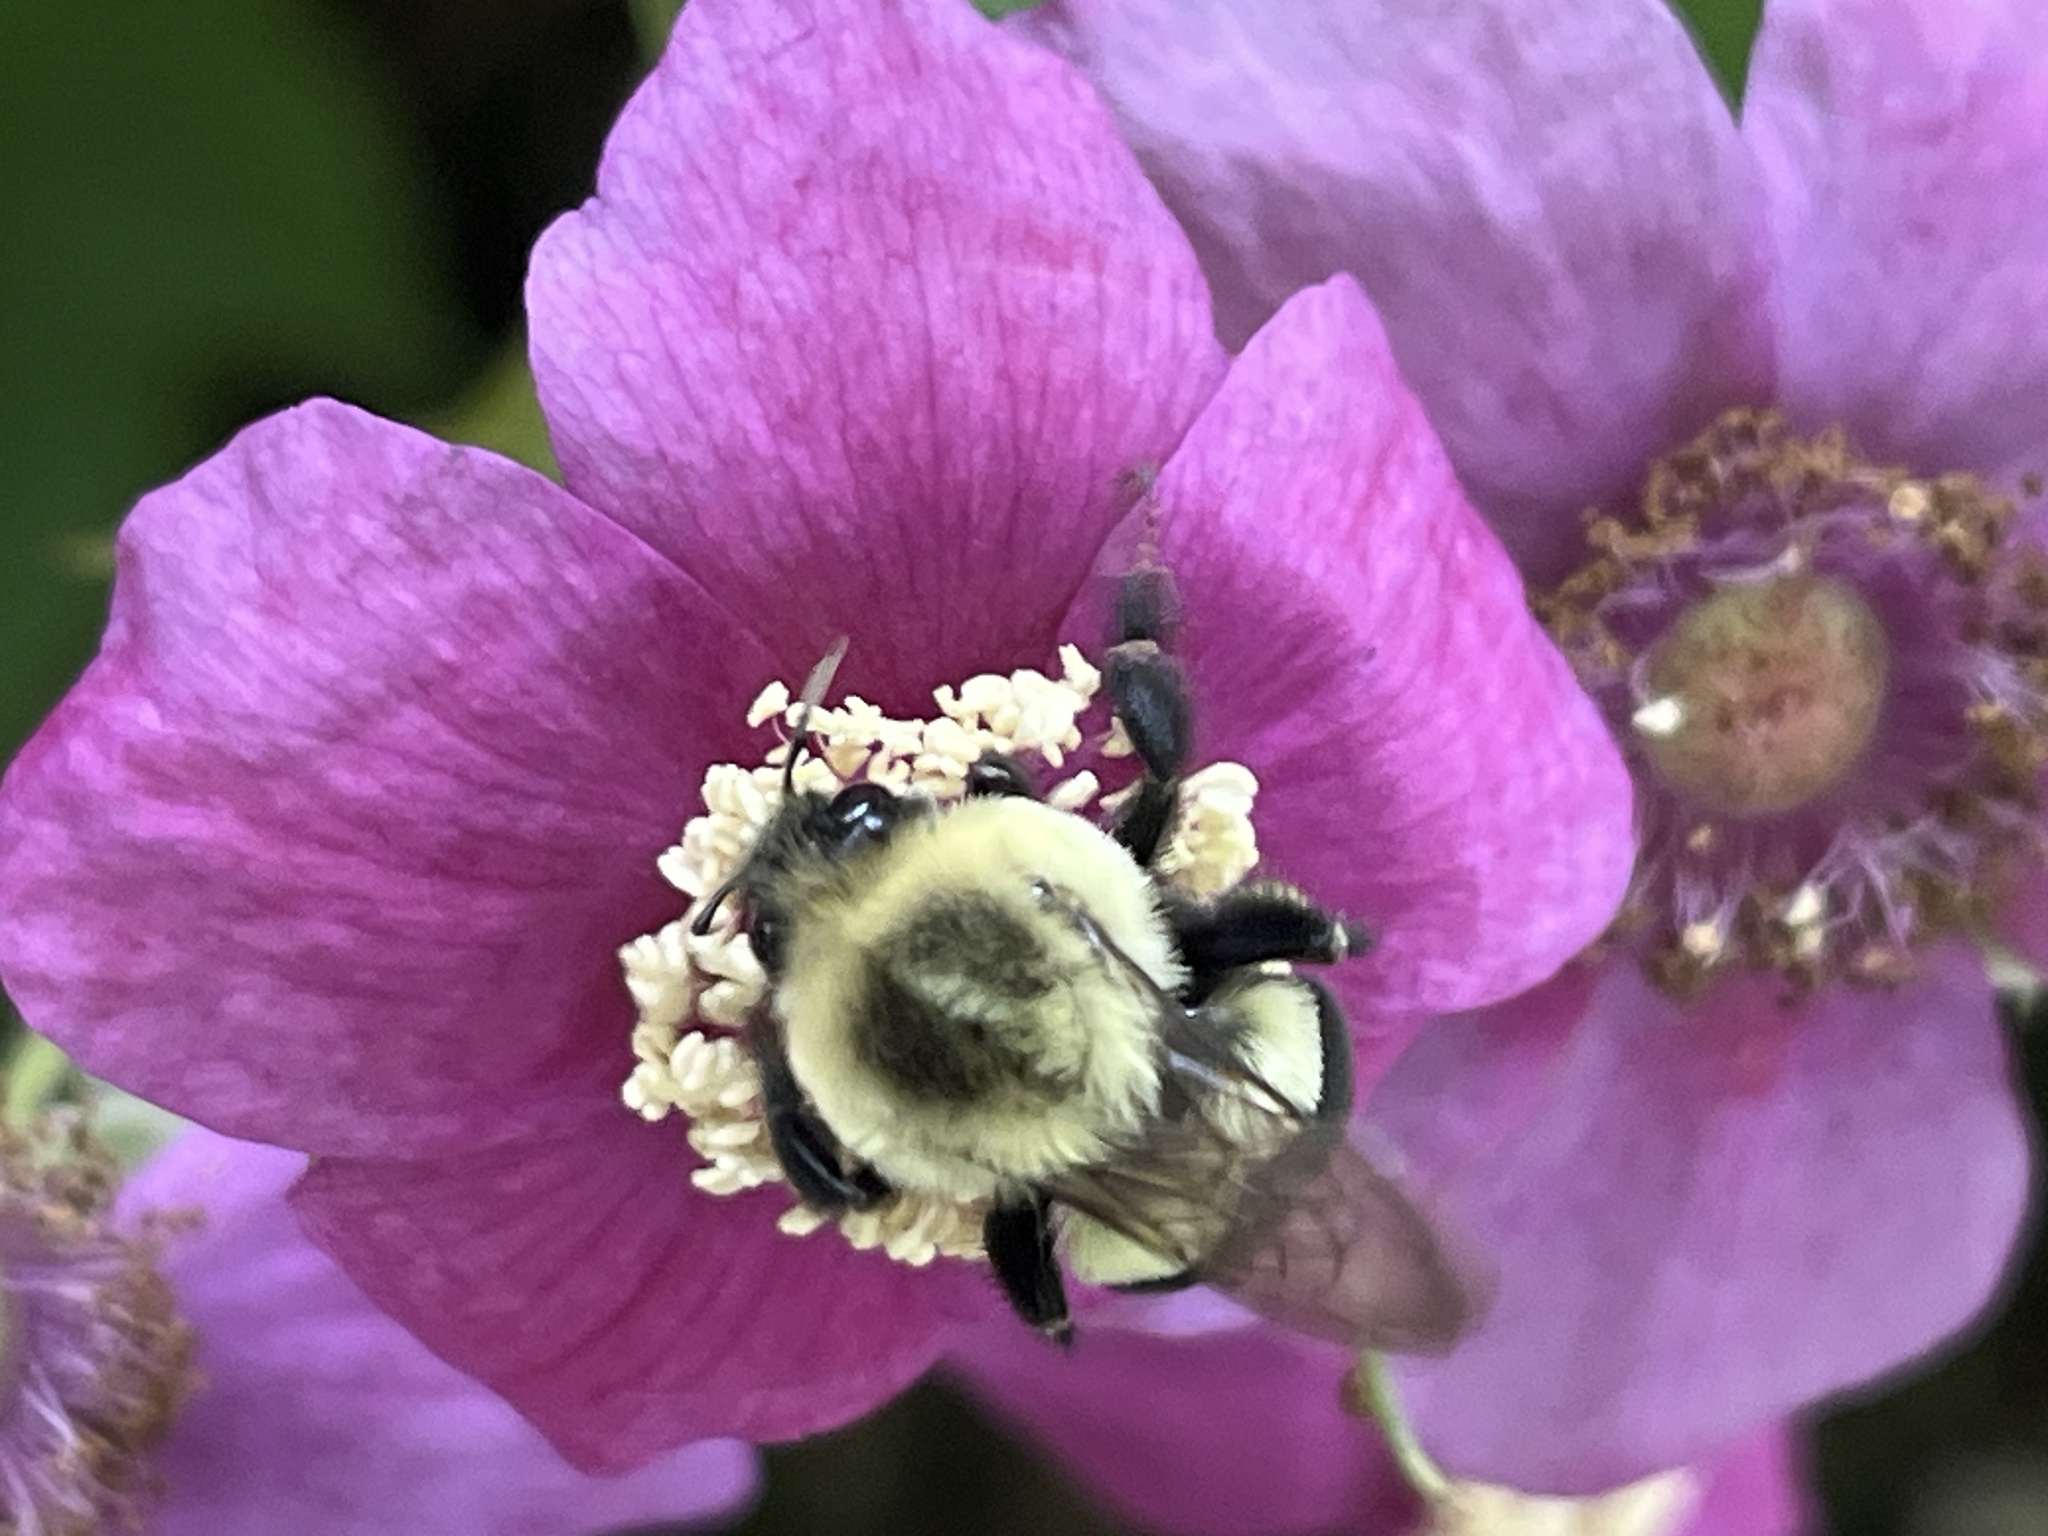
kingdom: Animalia
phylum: Arthropoda
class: Insecta
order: Hymenoptera
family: Apidae
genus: Bombus
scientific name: Bombus impatiens
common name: Common eastern bumble bee
